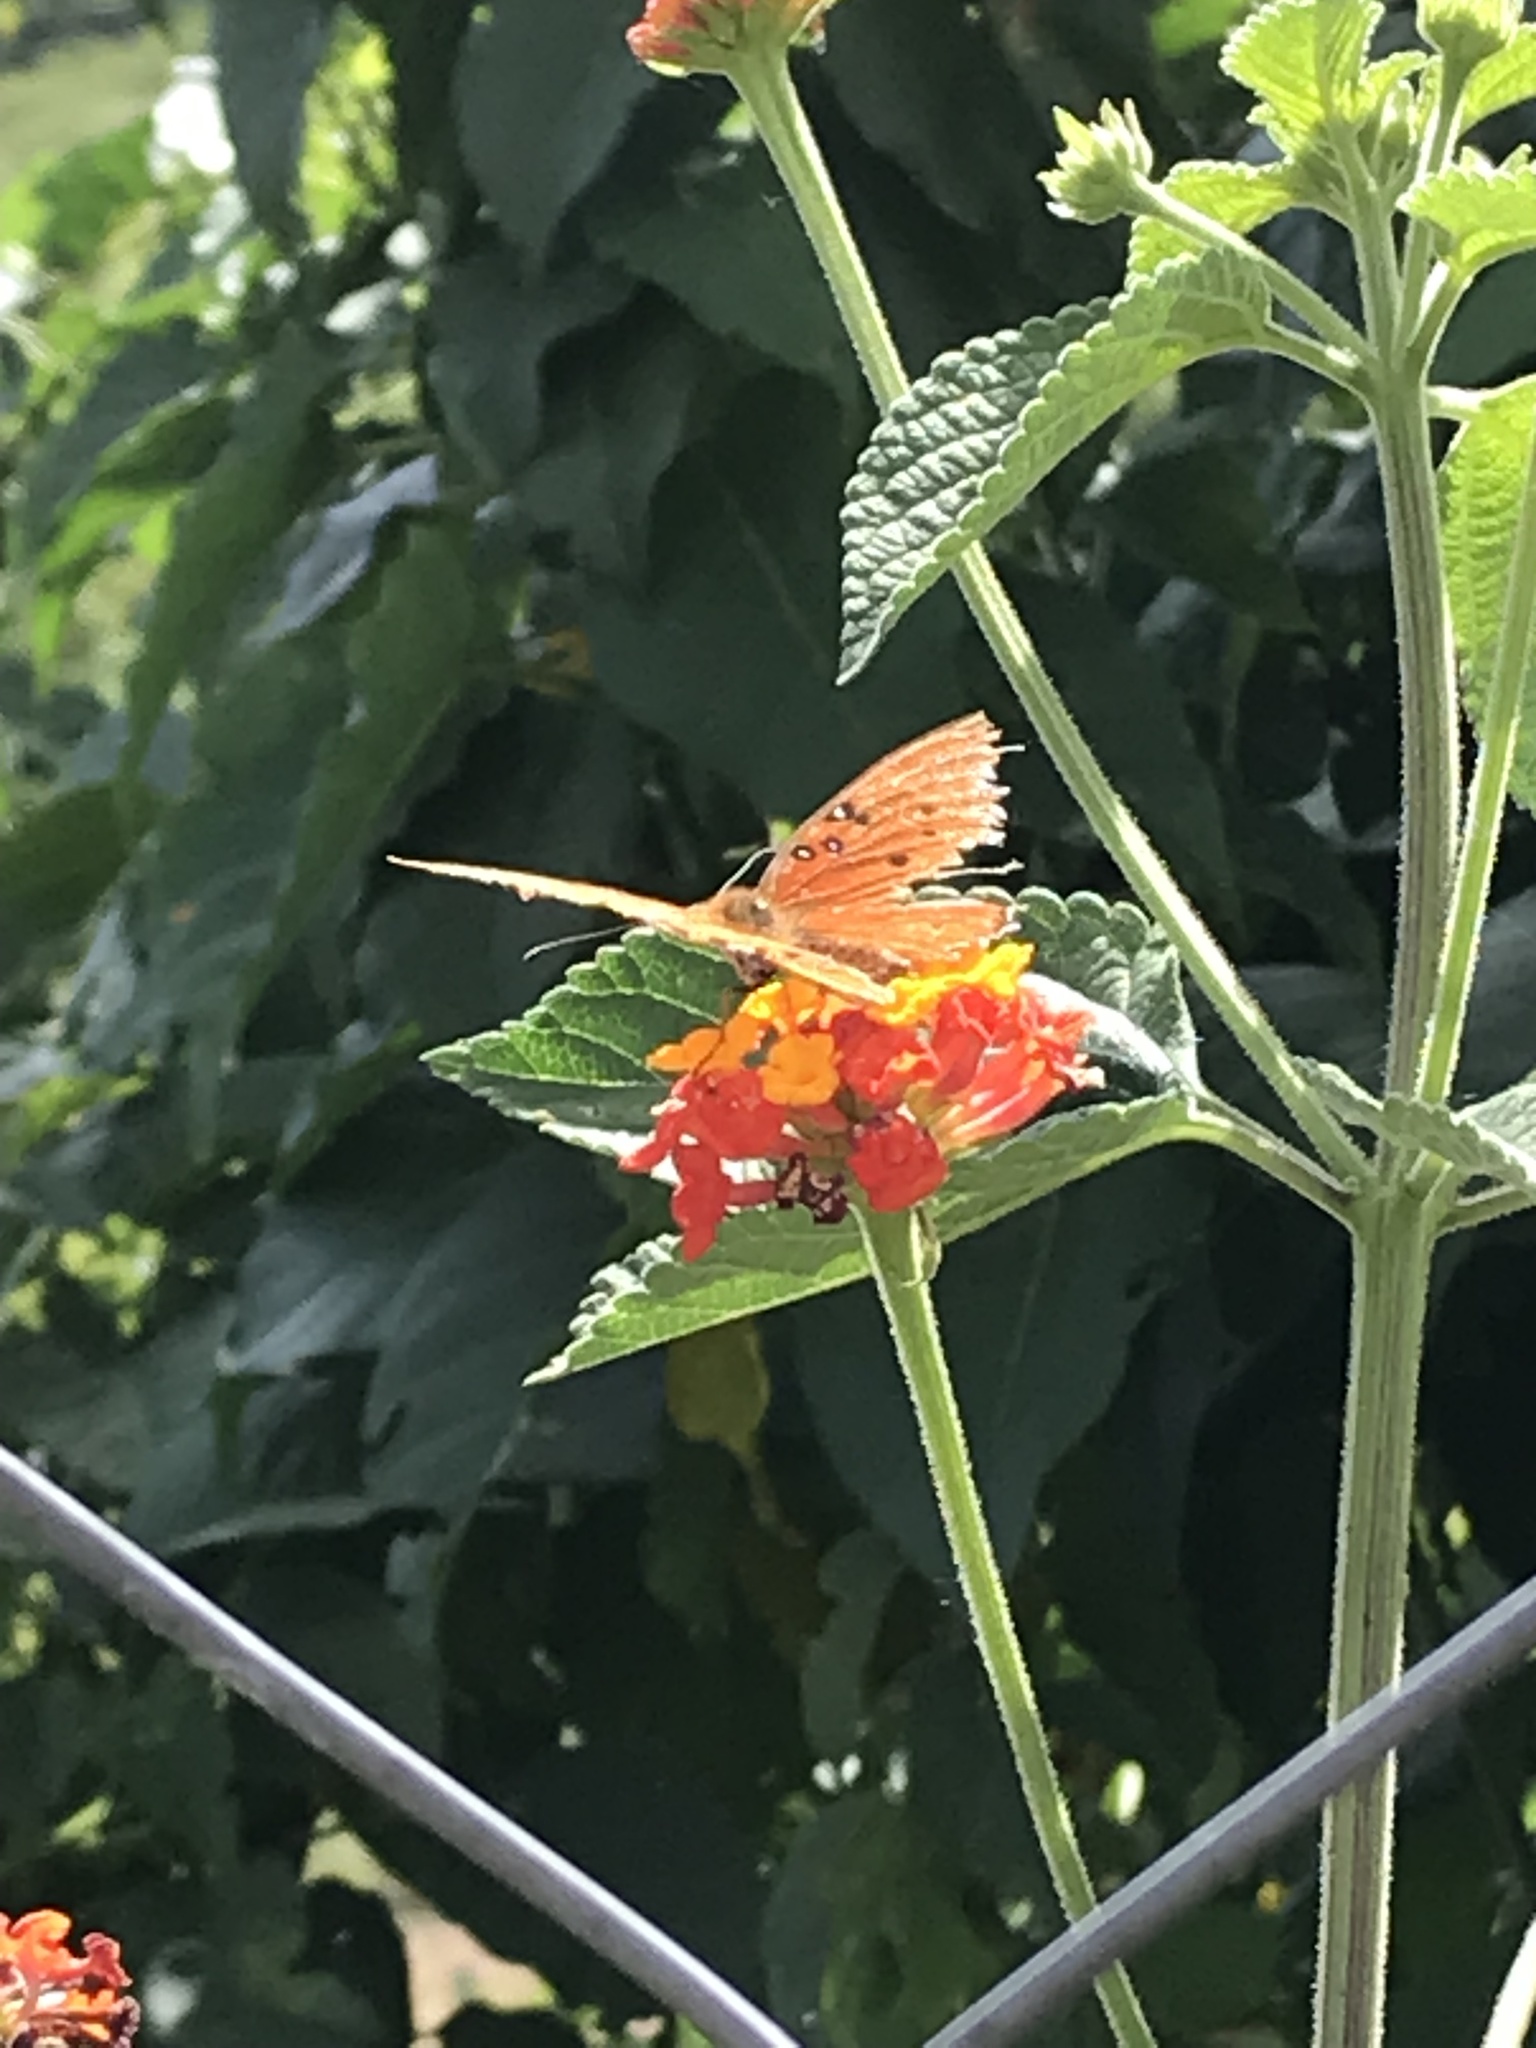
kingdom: Animalia
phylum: Arthropoda
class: Insecta
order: Lepidoptera
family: Nymphalidae
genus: Dione
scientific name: Dione vanillae
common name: Gulf fritillary
